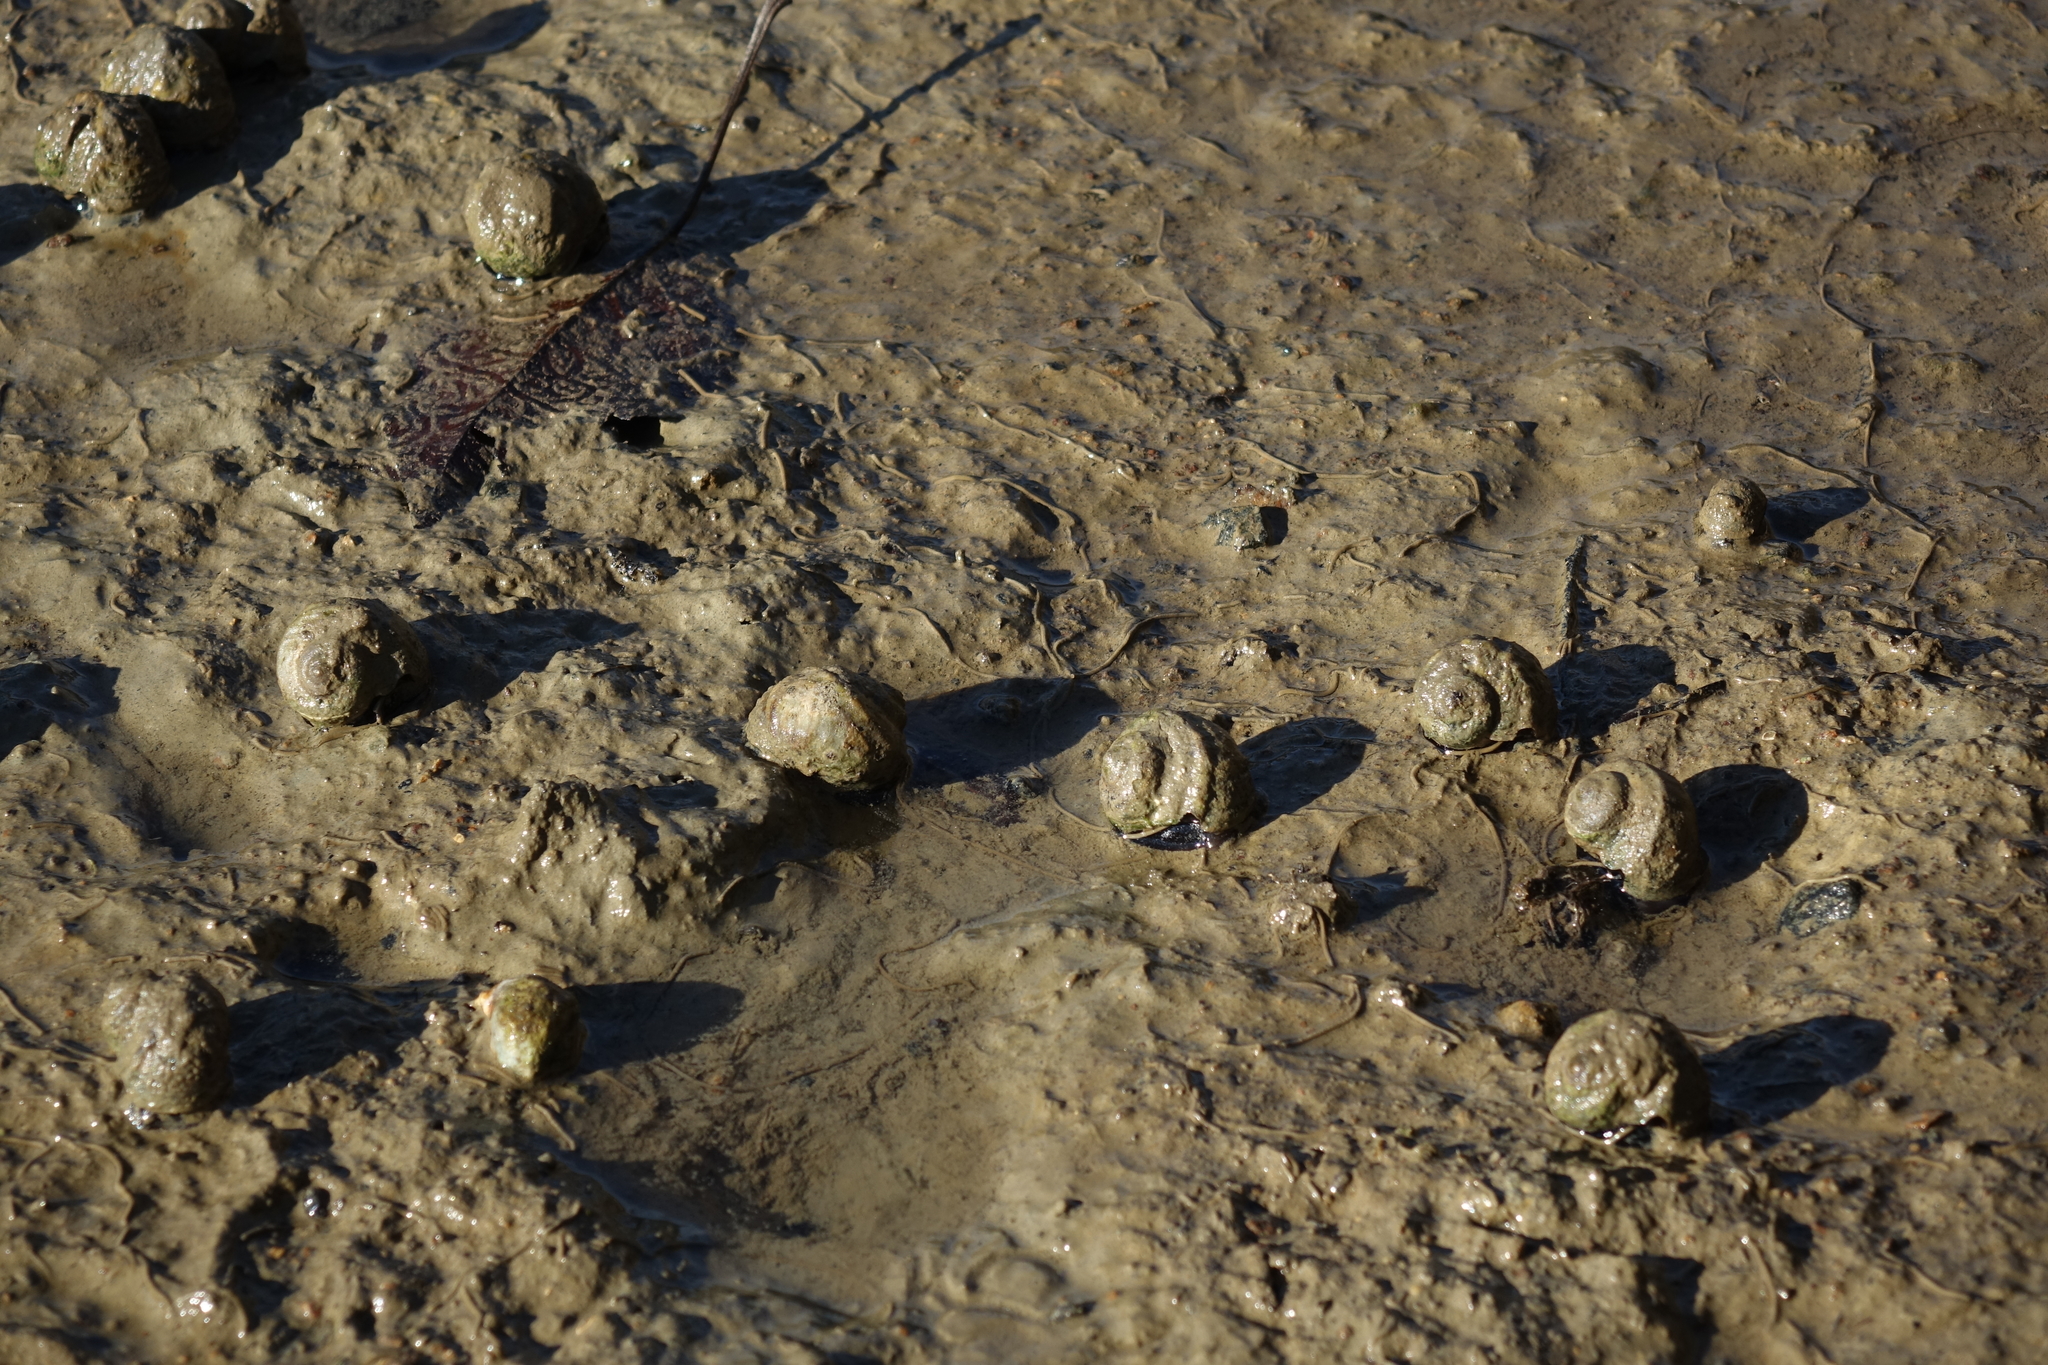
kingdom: Animalia
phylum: Mollusca
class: Gastropoda
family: Amphibolidae
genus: Amphibola
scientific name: Amphibola crenata
